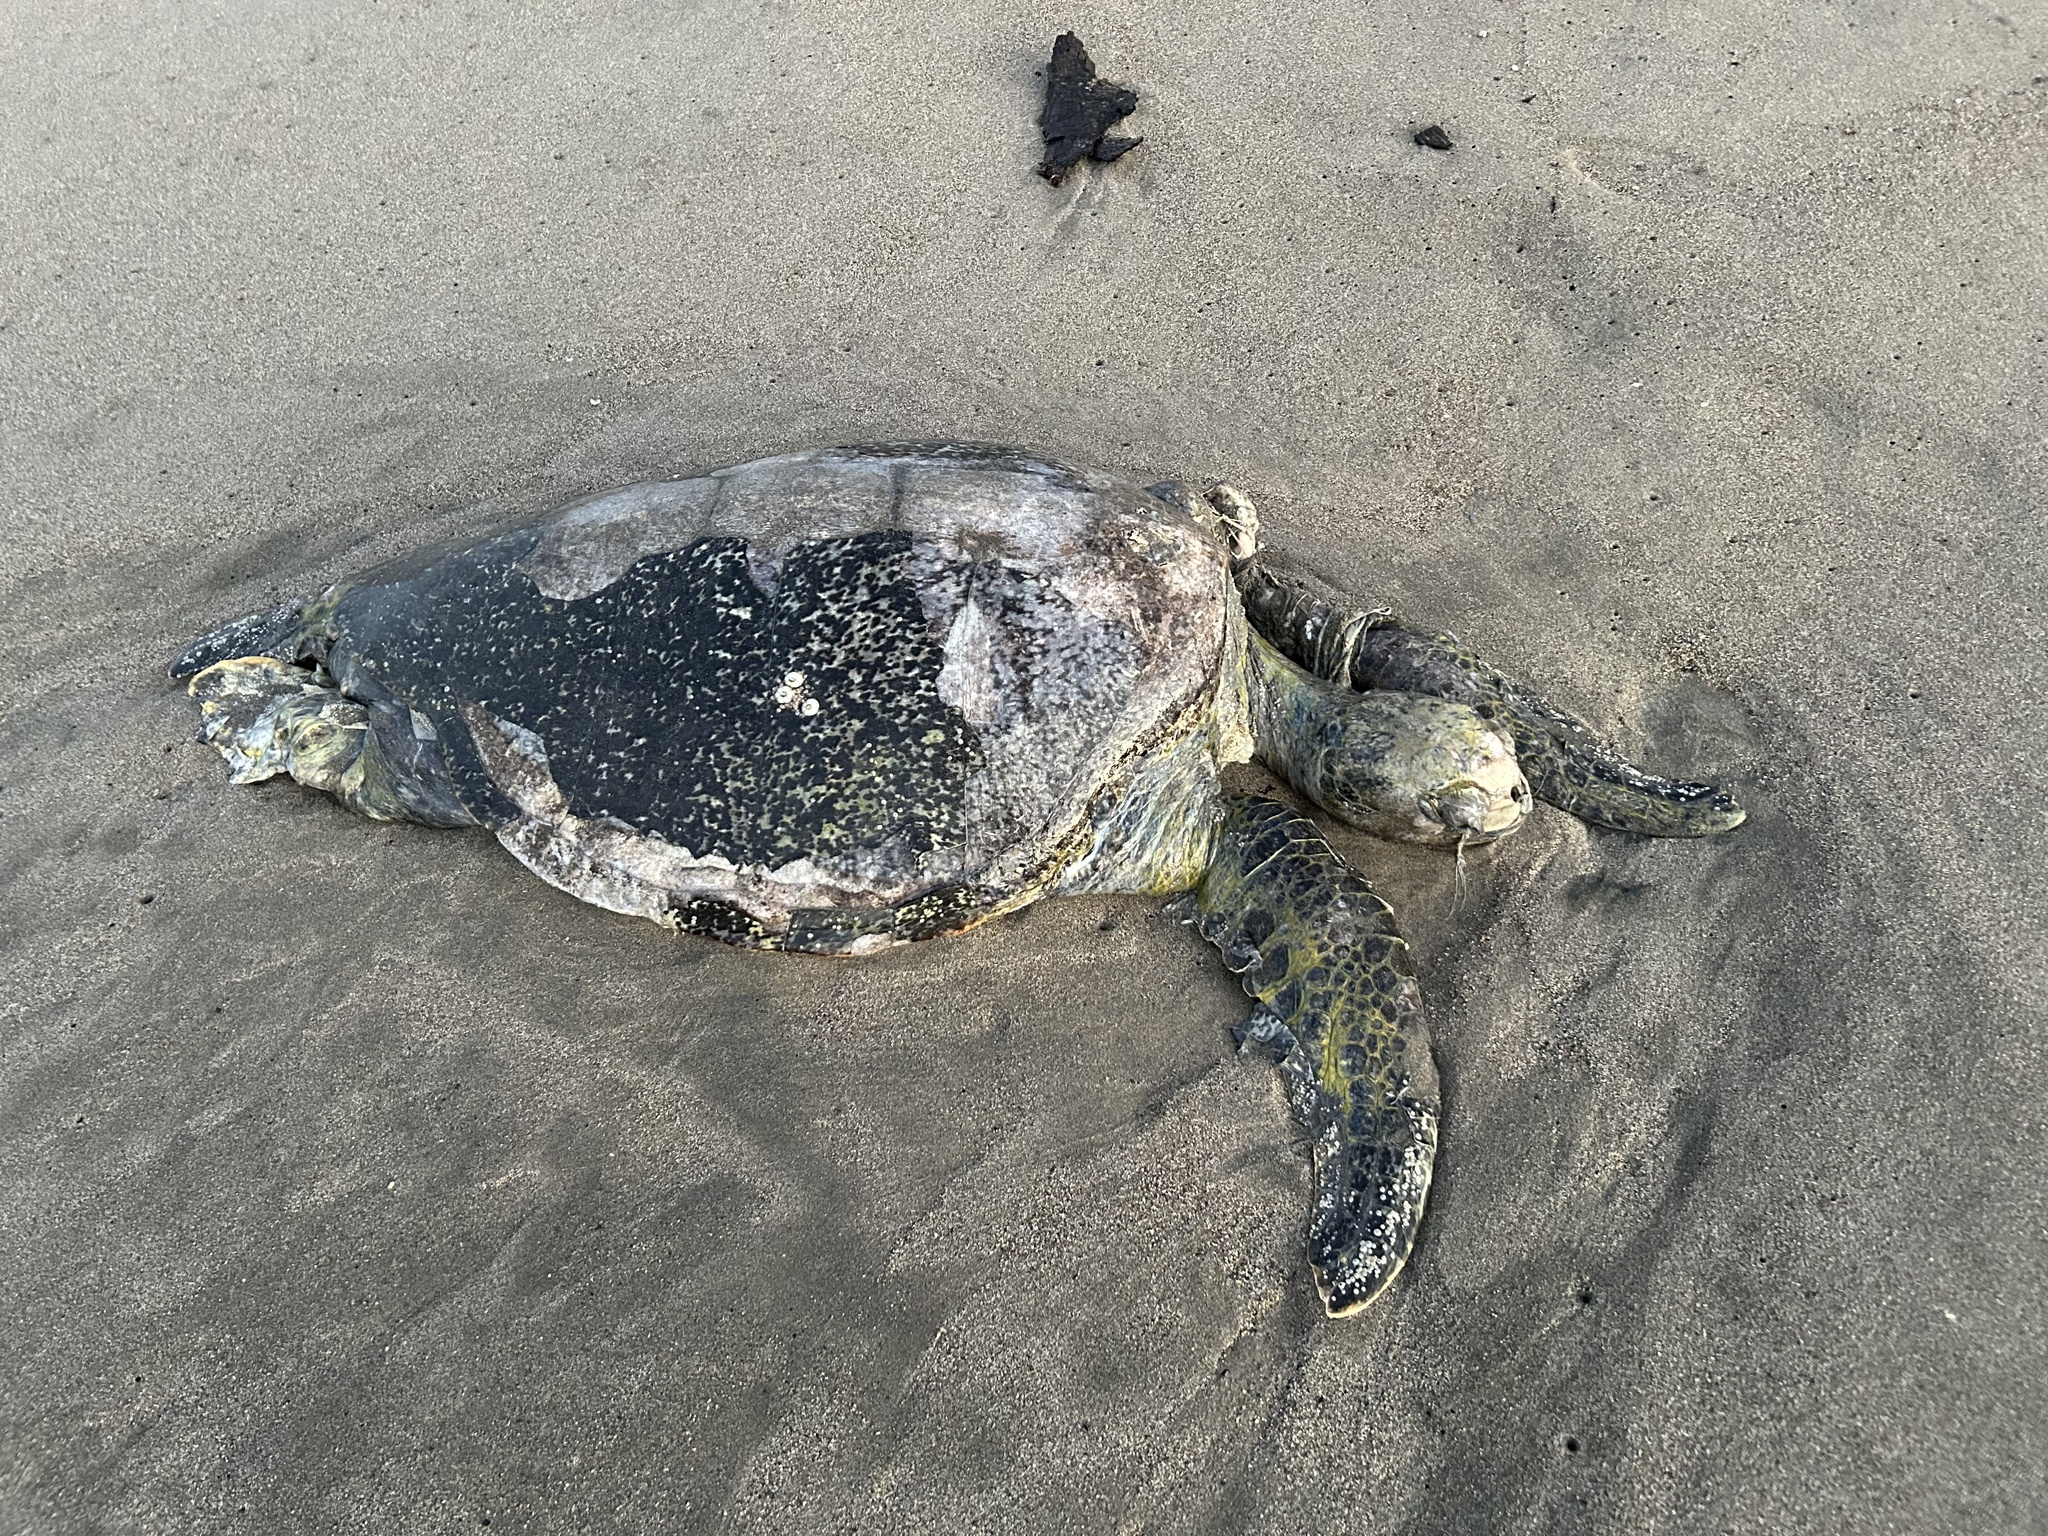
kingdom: Animalia
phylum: Chordata
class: Testudines
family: Cheloniidae
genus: Chelonia
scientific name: Chelonia mydas
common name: Green turtle
